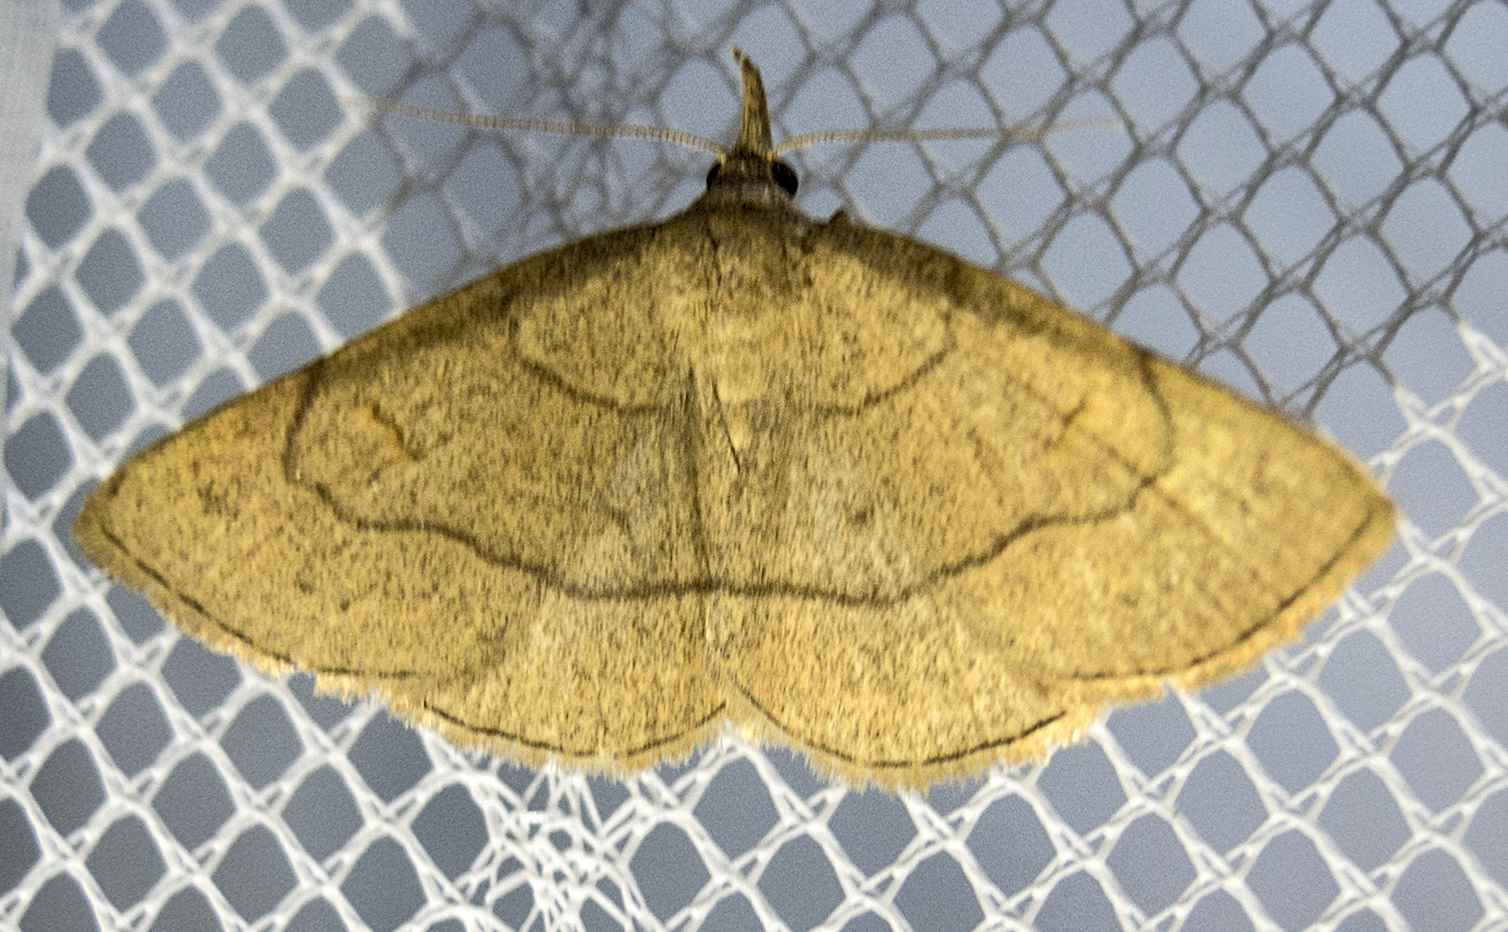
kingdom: Animalia
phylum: Arthropoda
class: Insecta
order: Lepidoptera
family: Erebidae
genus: Paracolax
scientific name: Paracolax tristalis
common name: Clay fan-foot
